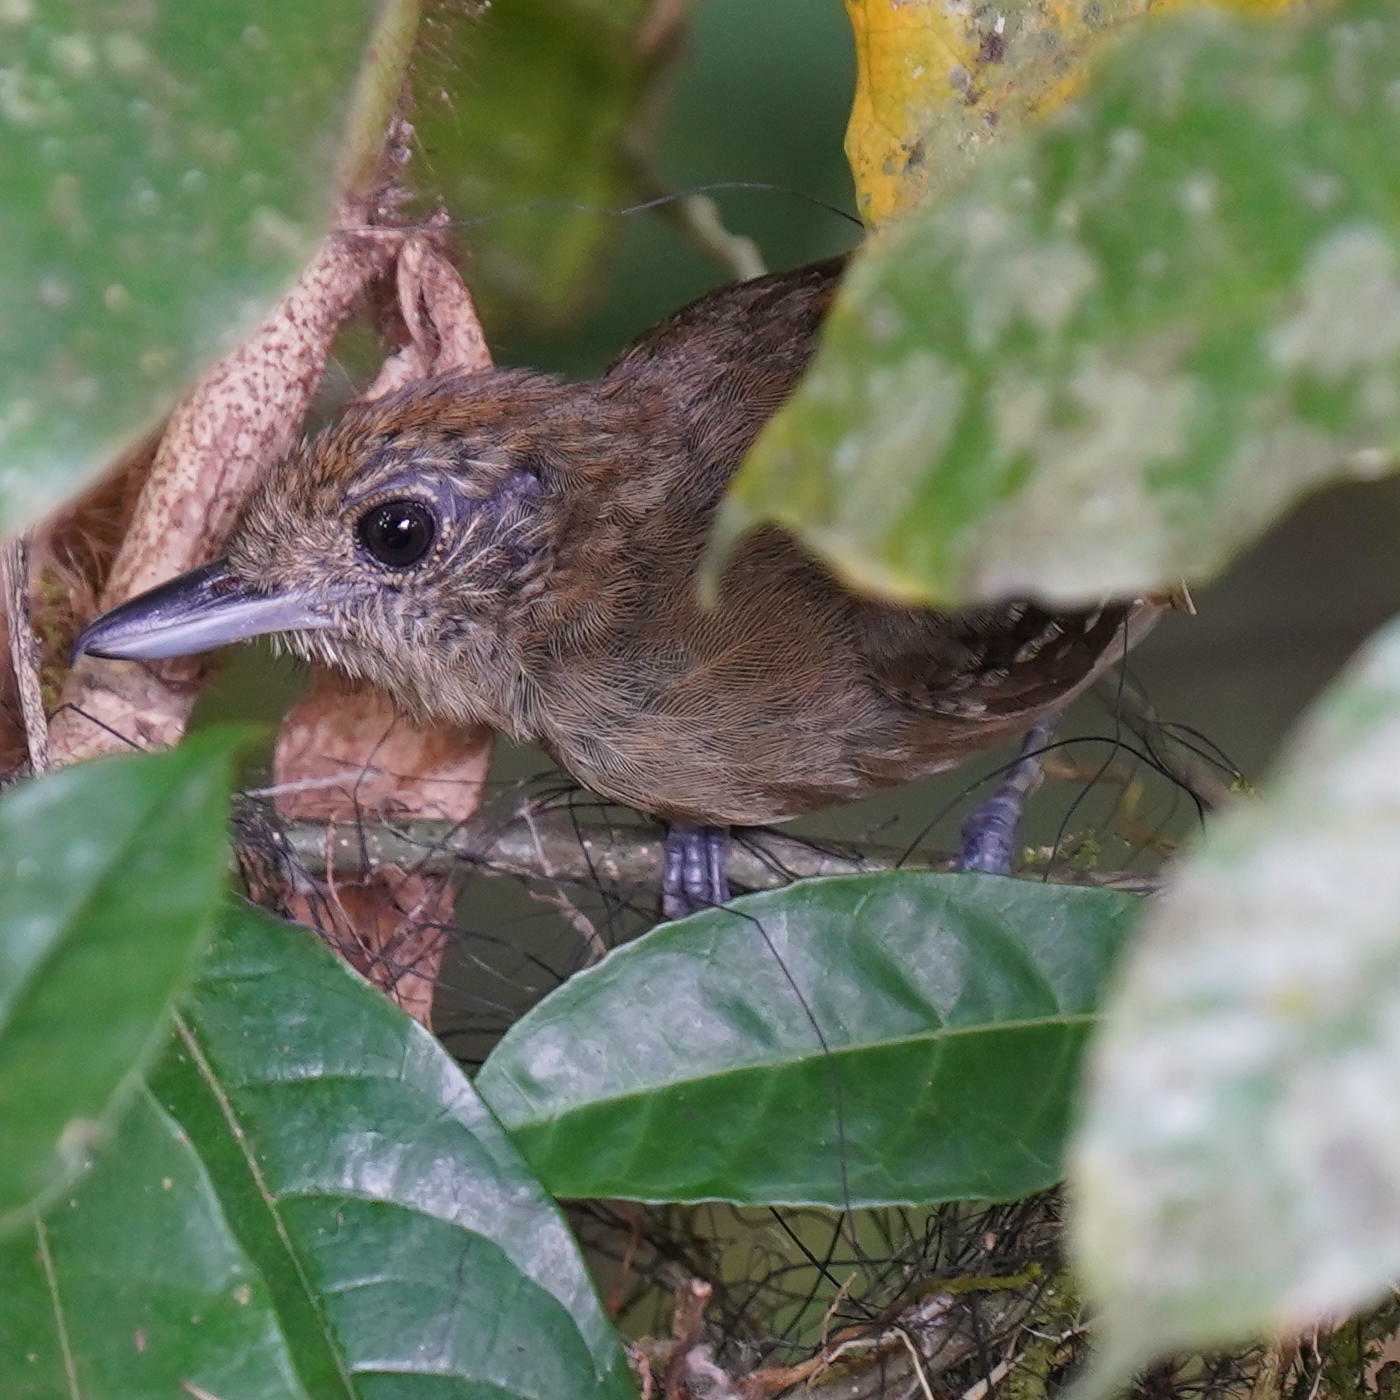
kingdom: Animalia
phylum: Chordata
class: Aves
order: Passeriformes
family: Thamnophilidae
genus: Thamnophilus
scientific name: Thamnophilus atrinucha
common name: Black-crowned antshrike
